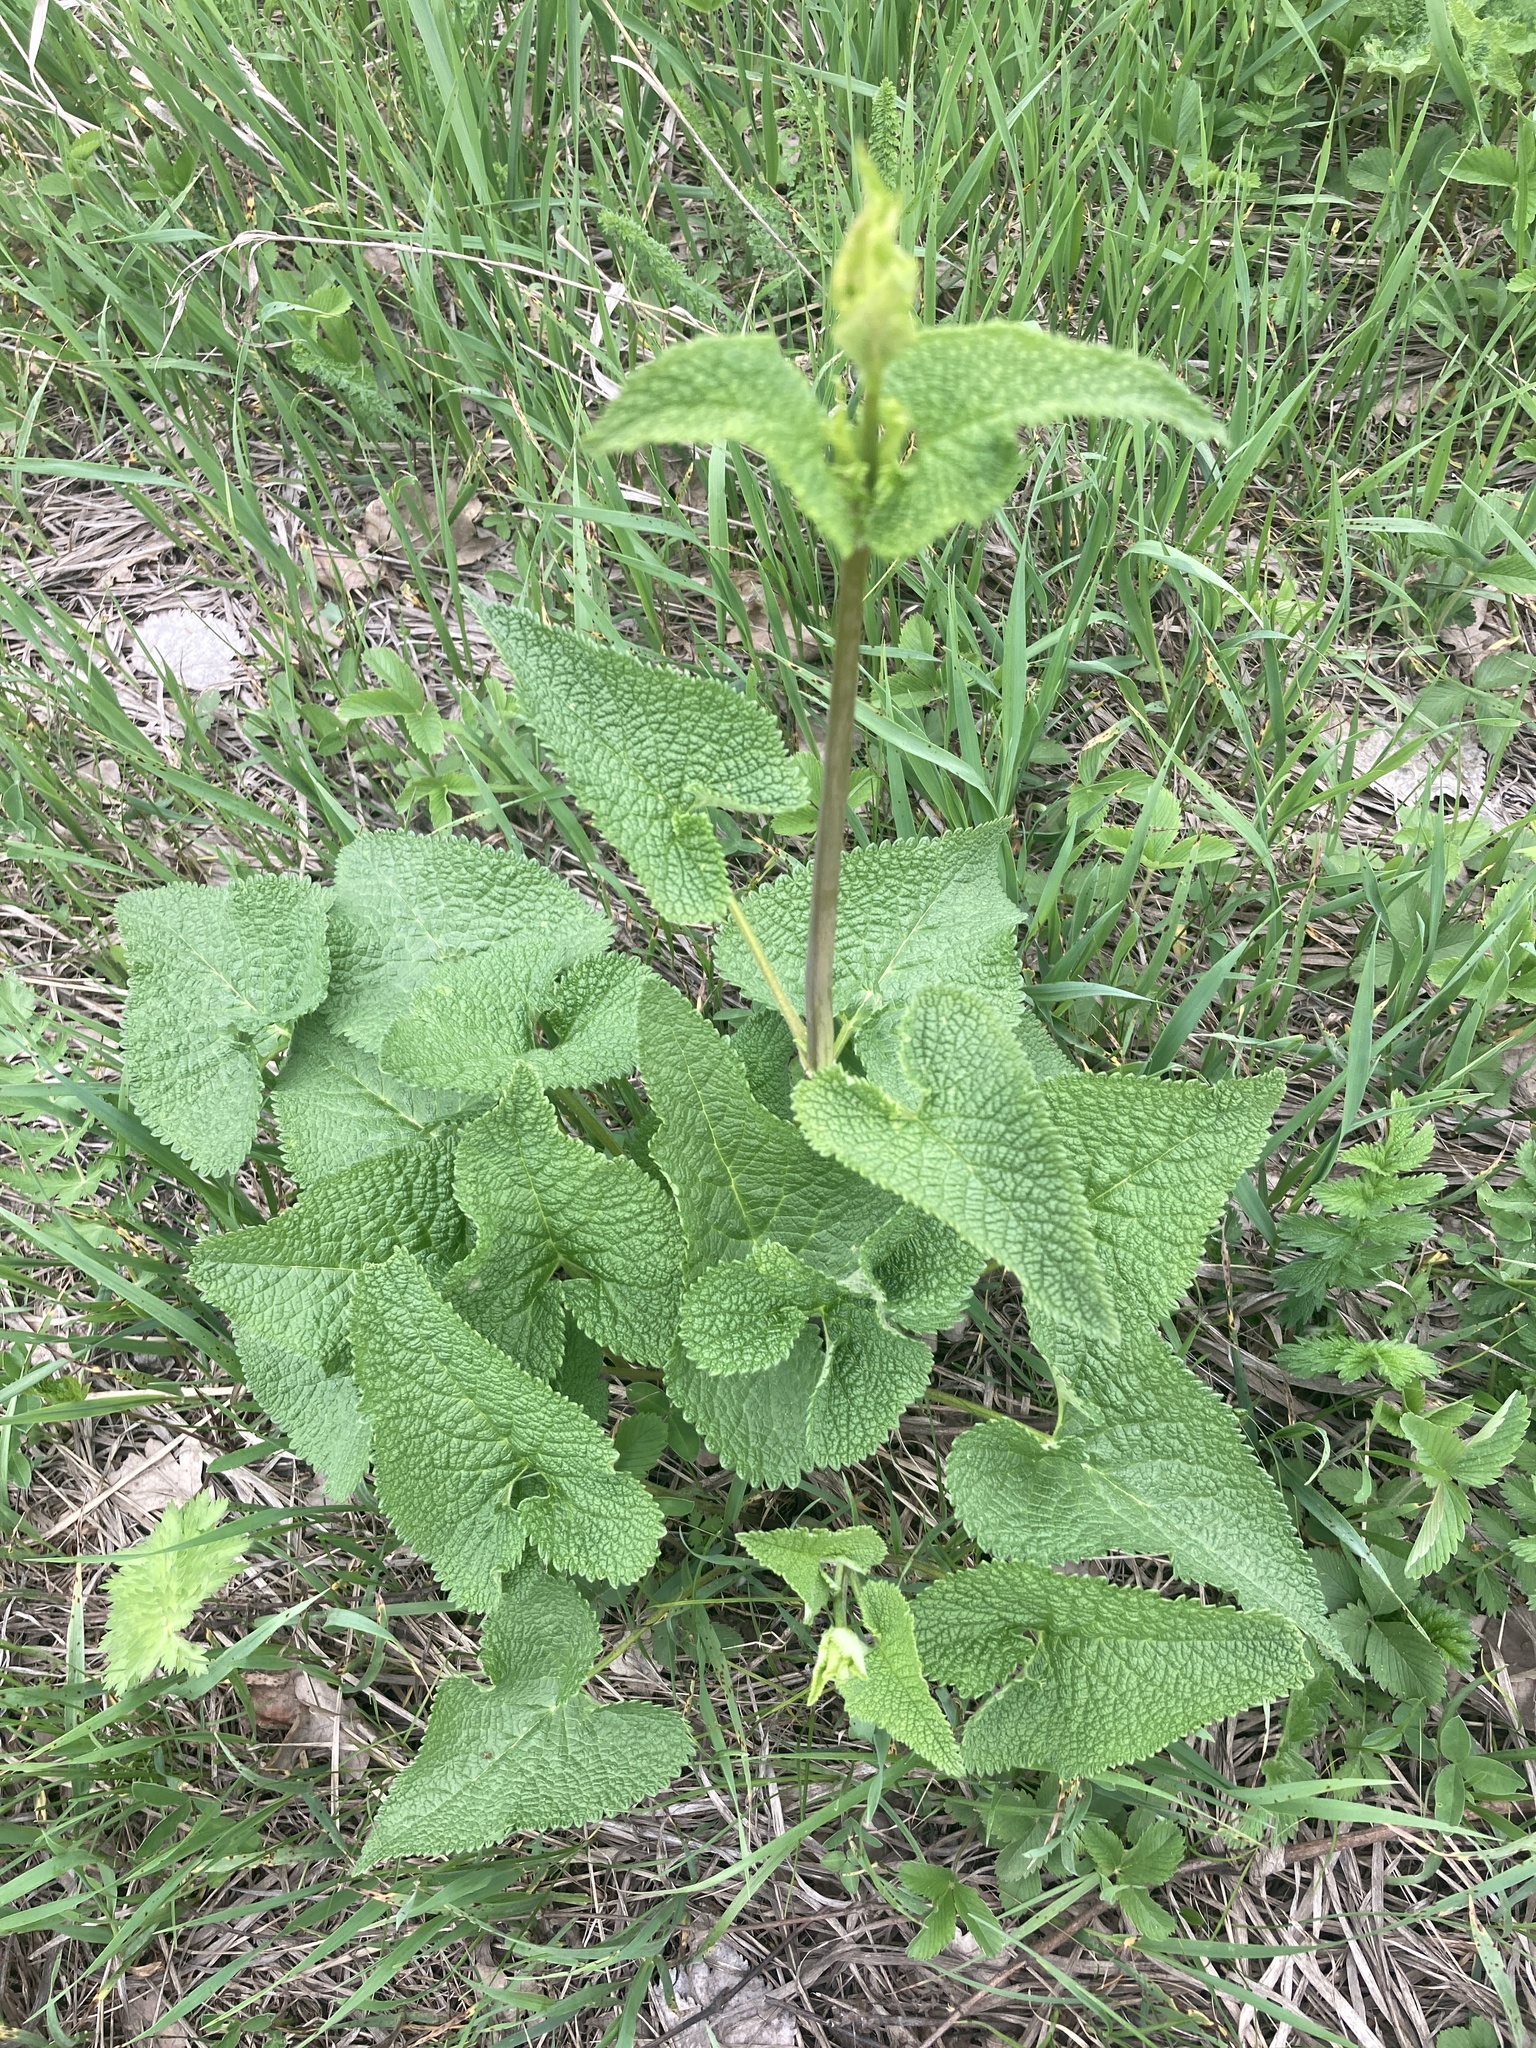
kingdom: Plantae
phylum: Tracheophyta
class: Magnoliopsida
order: Lamiales
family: Lamiaceae
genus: Phlomoides
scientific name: Phlomoides tuberosa
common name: Tuberous jerusalem sage
